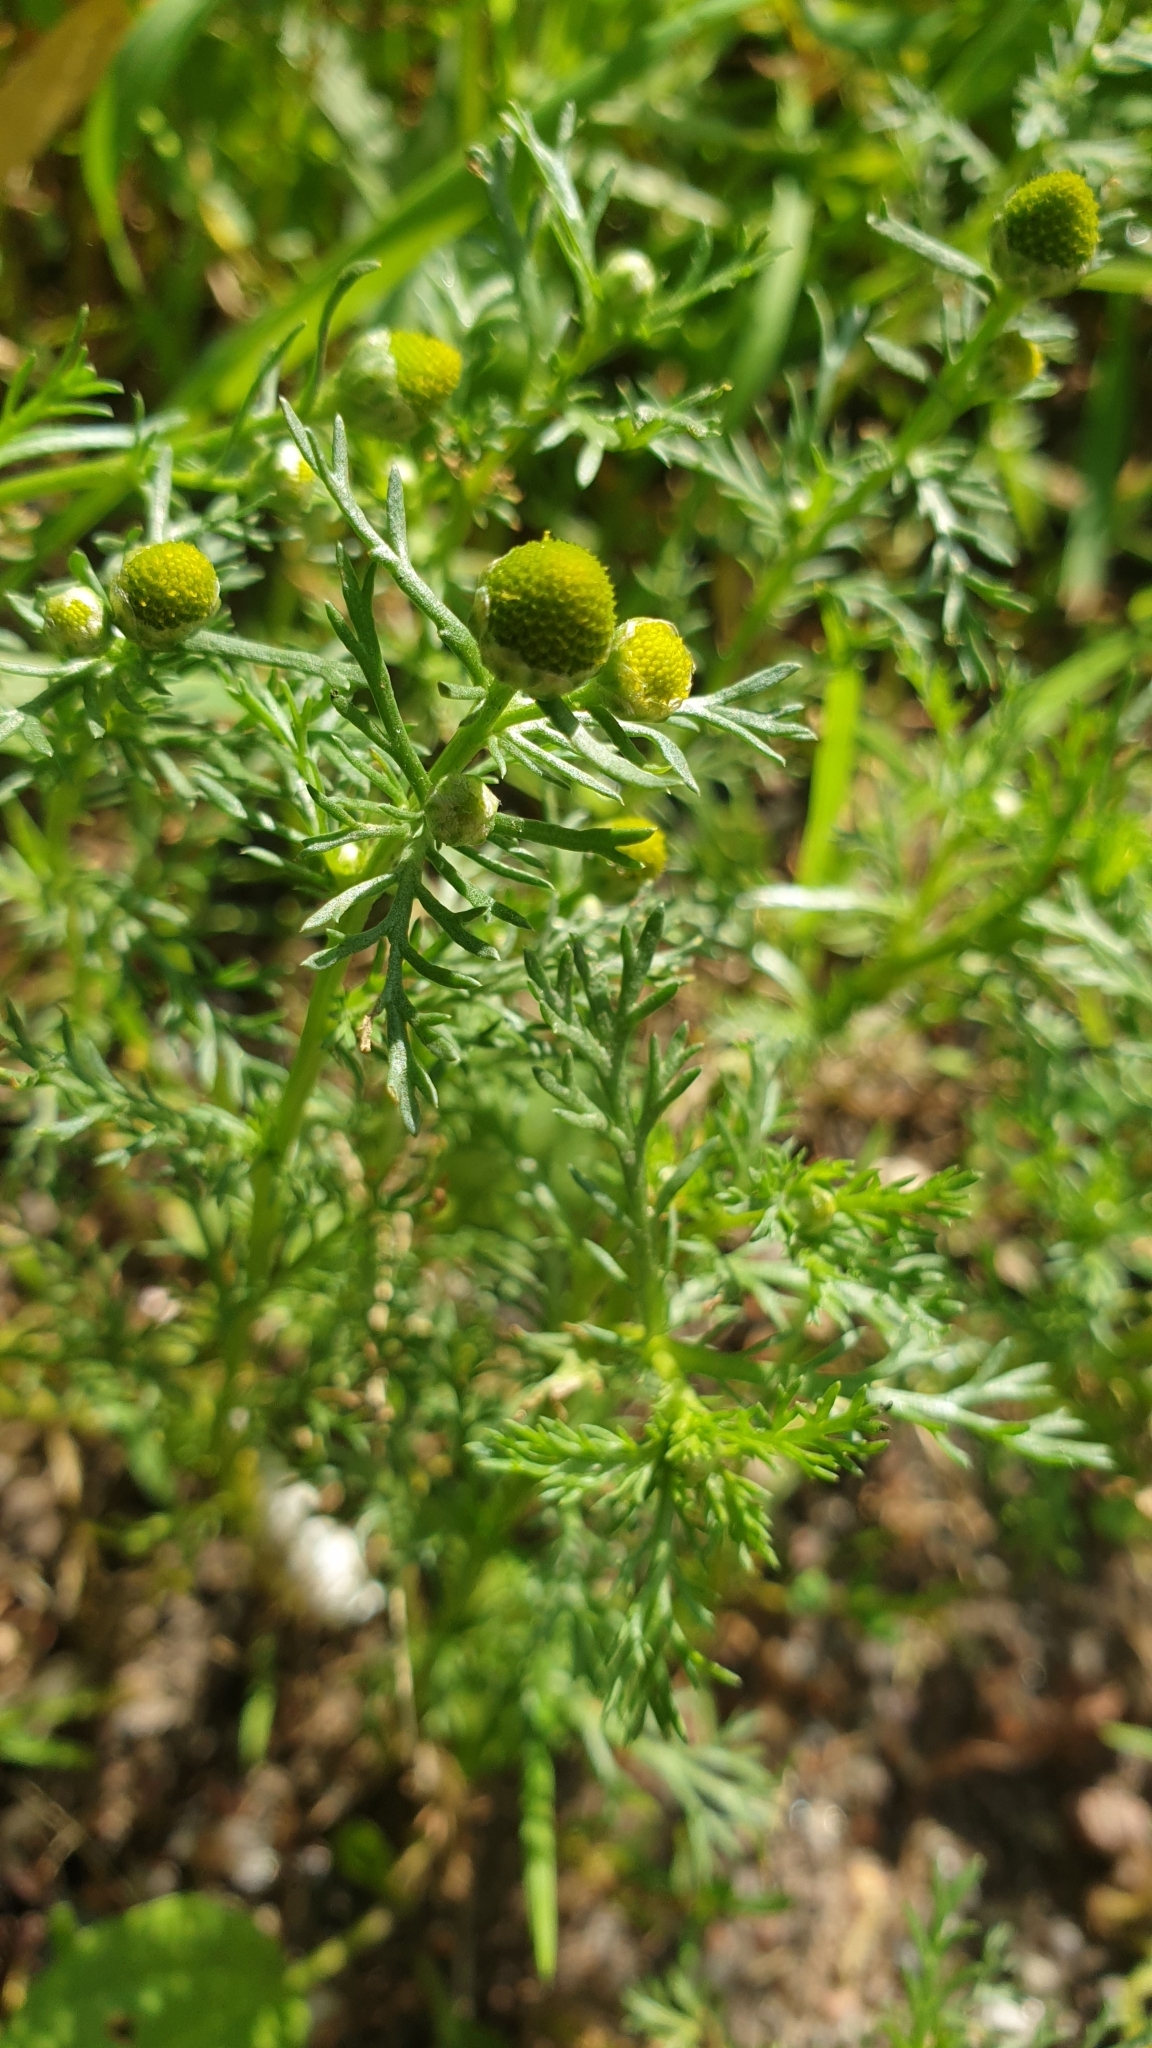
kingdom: Plantae
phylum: Tracheophyta
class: Magnoliopsida
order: Asterales
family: Asteraceae
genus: Matricaria
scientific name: Matricaria discoidea
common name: Disc mayweed
